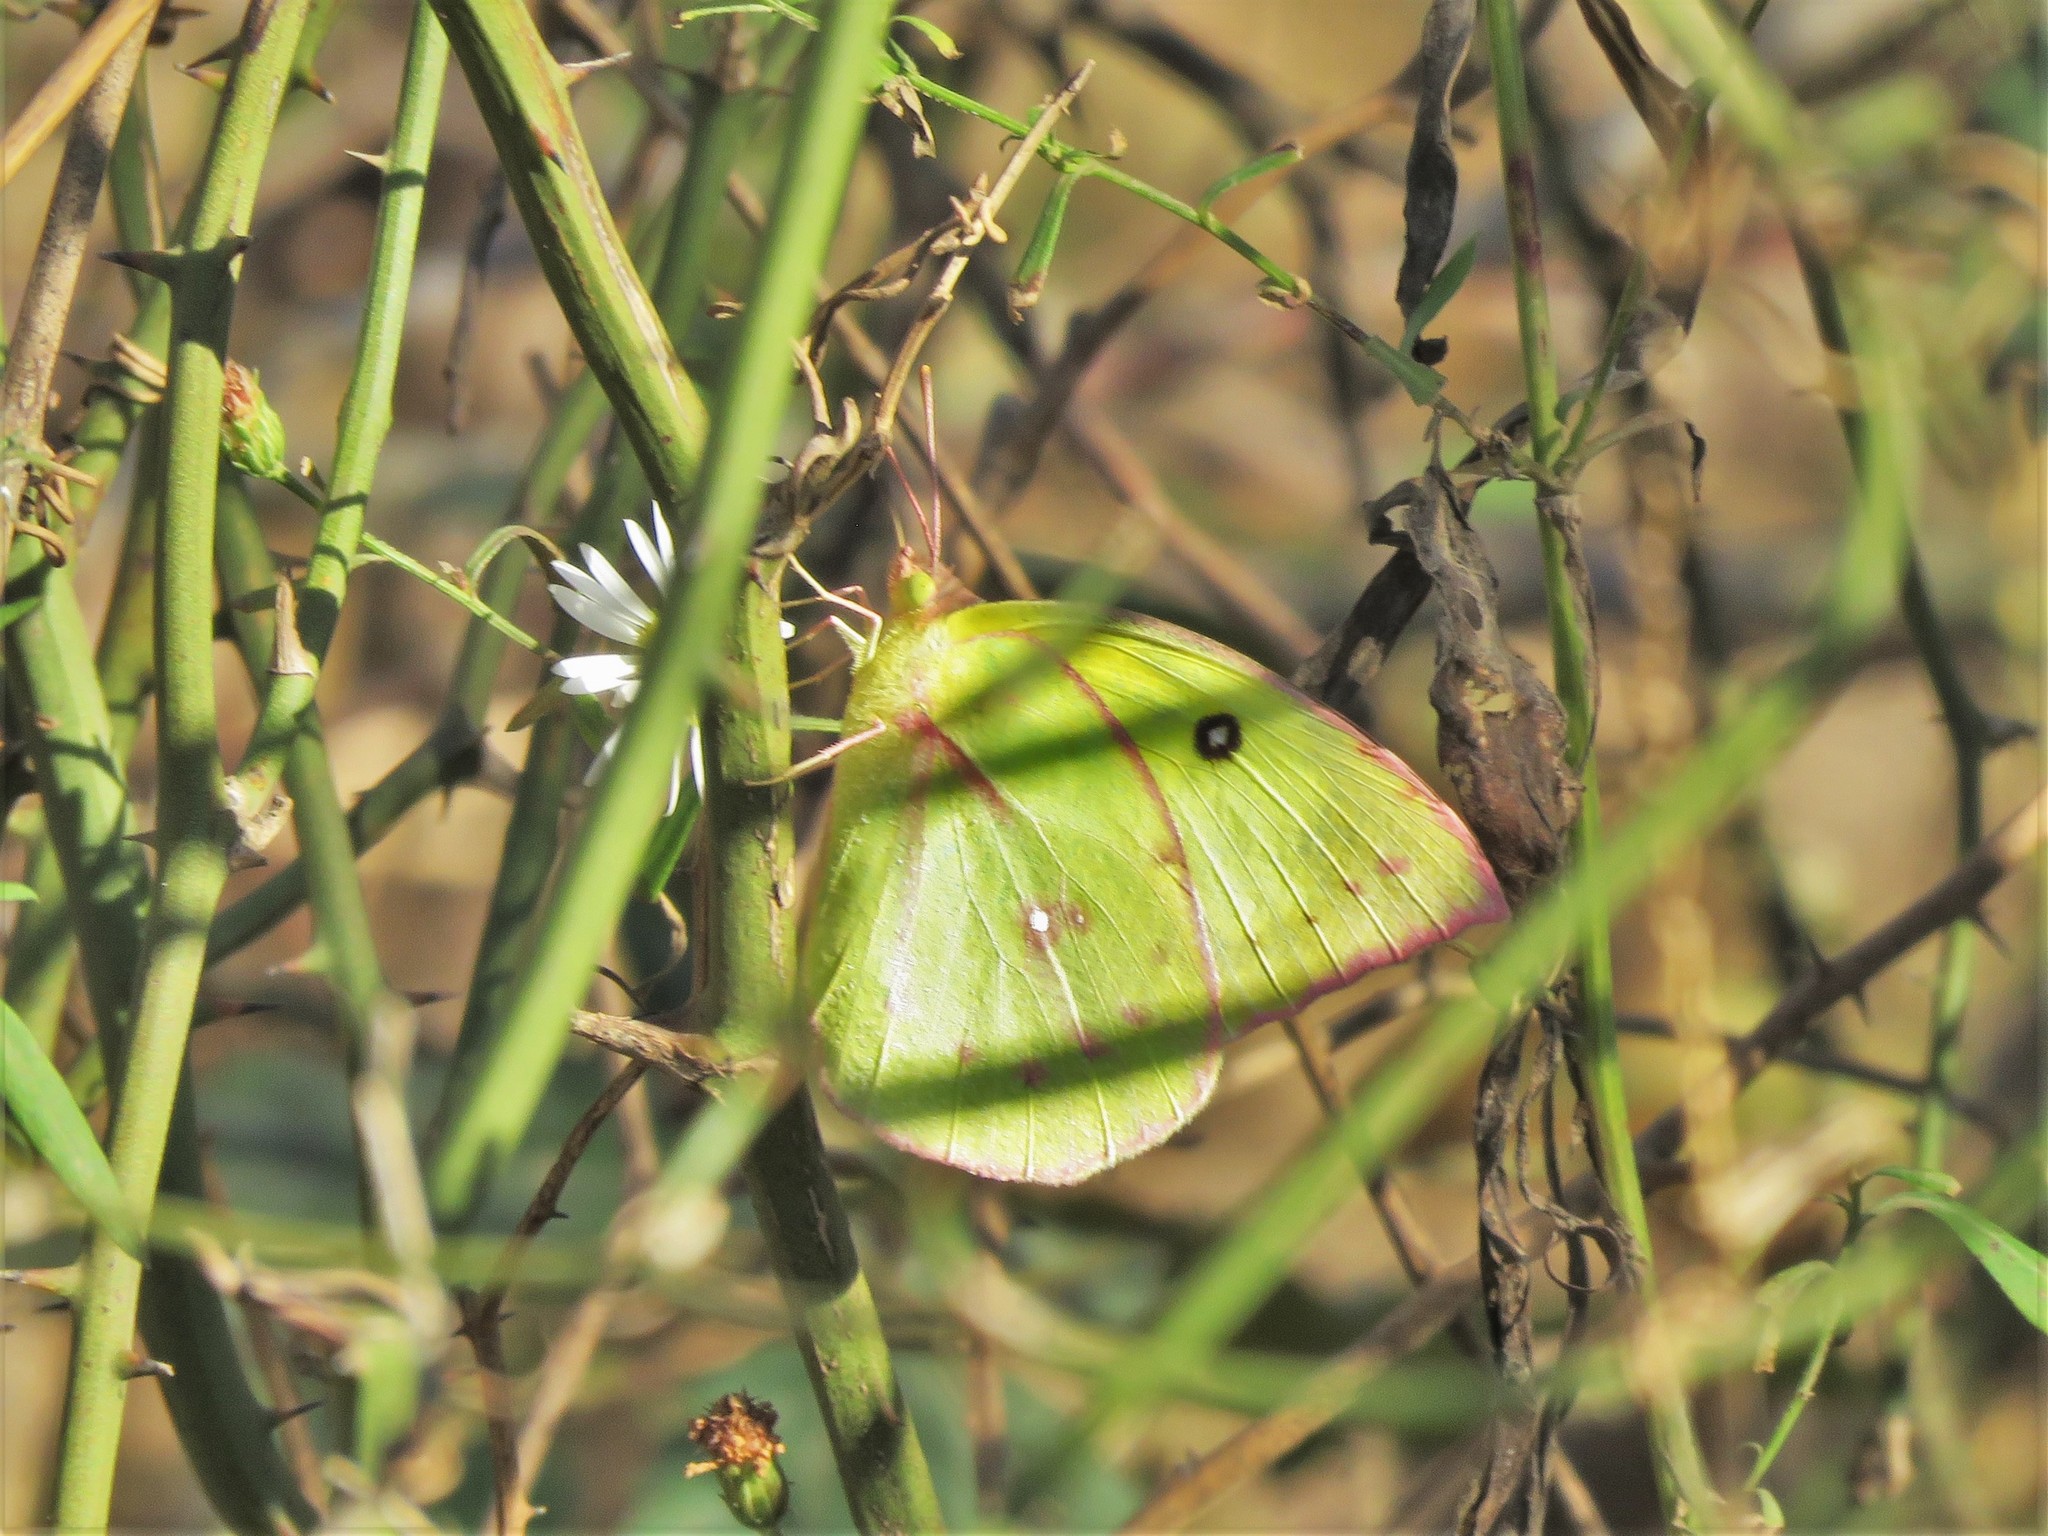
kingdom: Animalia
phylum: Arthropoda
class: Insecta
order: Lepidoptera
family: Pieridae
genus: Zerene
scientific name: Zerene cesonia
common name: Southern dogface
